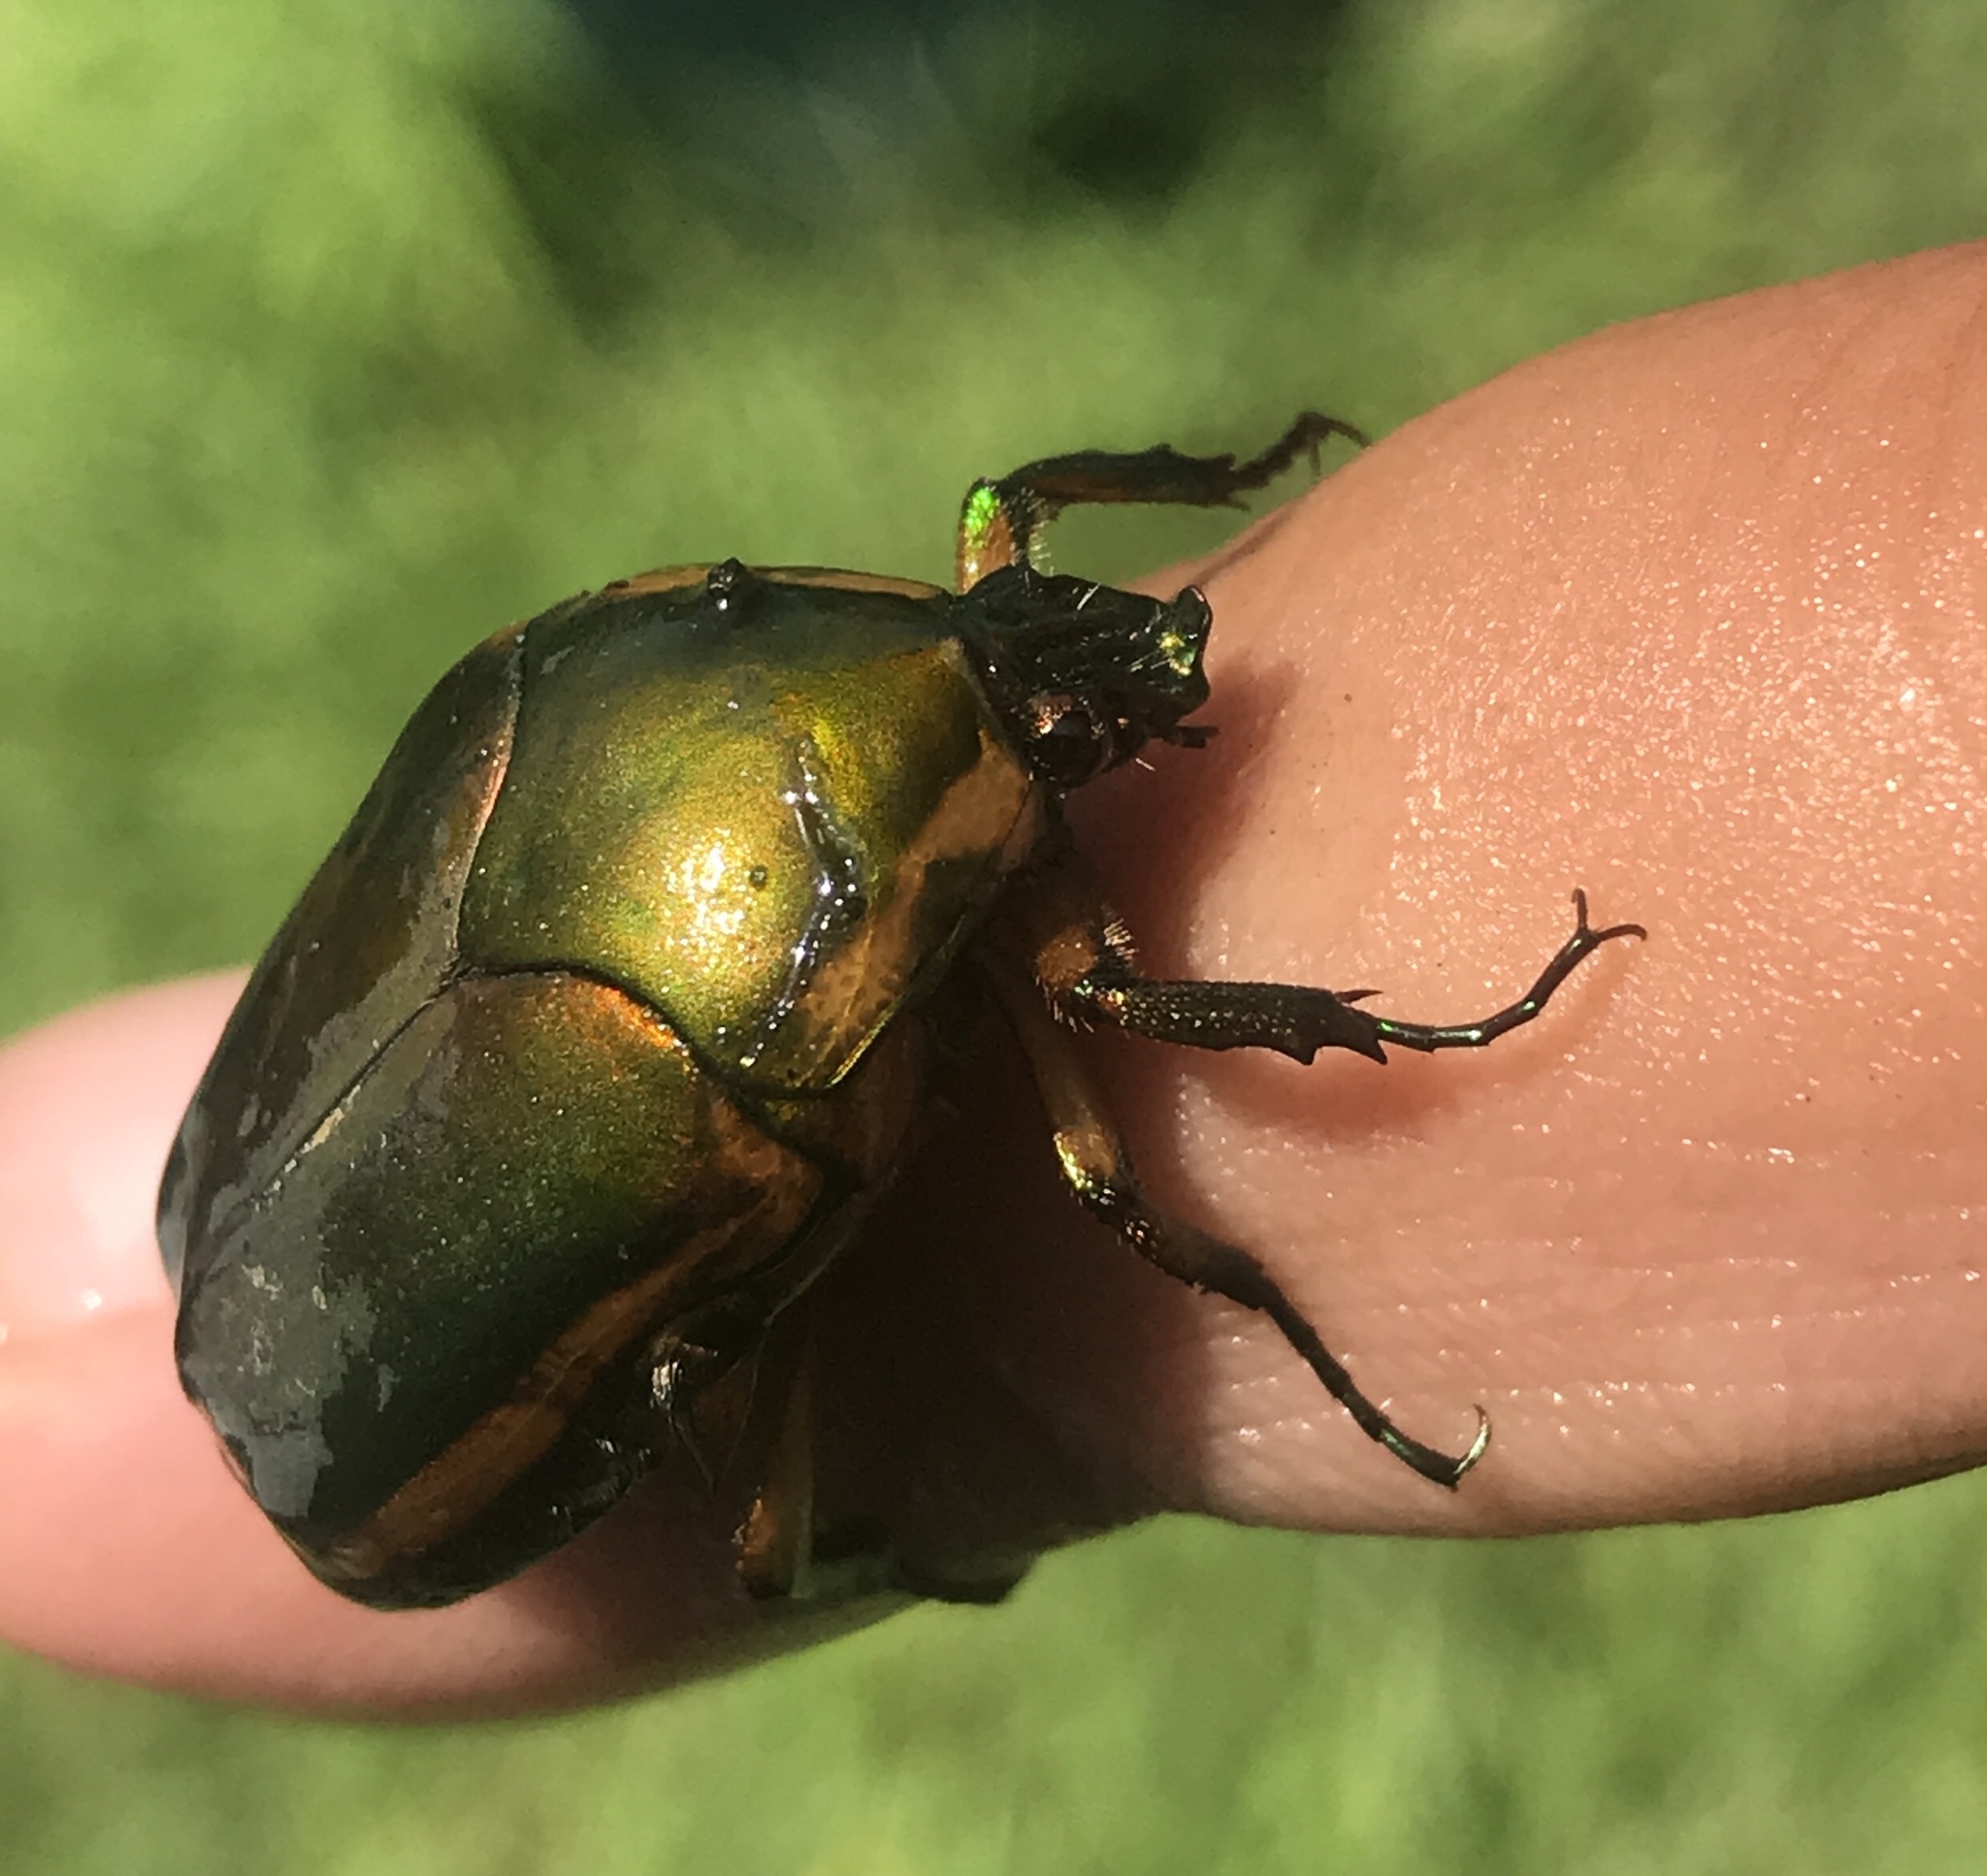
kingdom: Animalia
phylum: Arthropoda
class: Insecta
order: Coleoptera
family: Scarabaeidae
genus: Cotinis
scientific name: Cotinis nitida
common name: Common green june beetle
